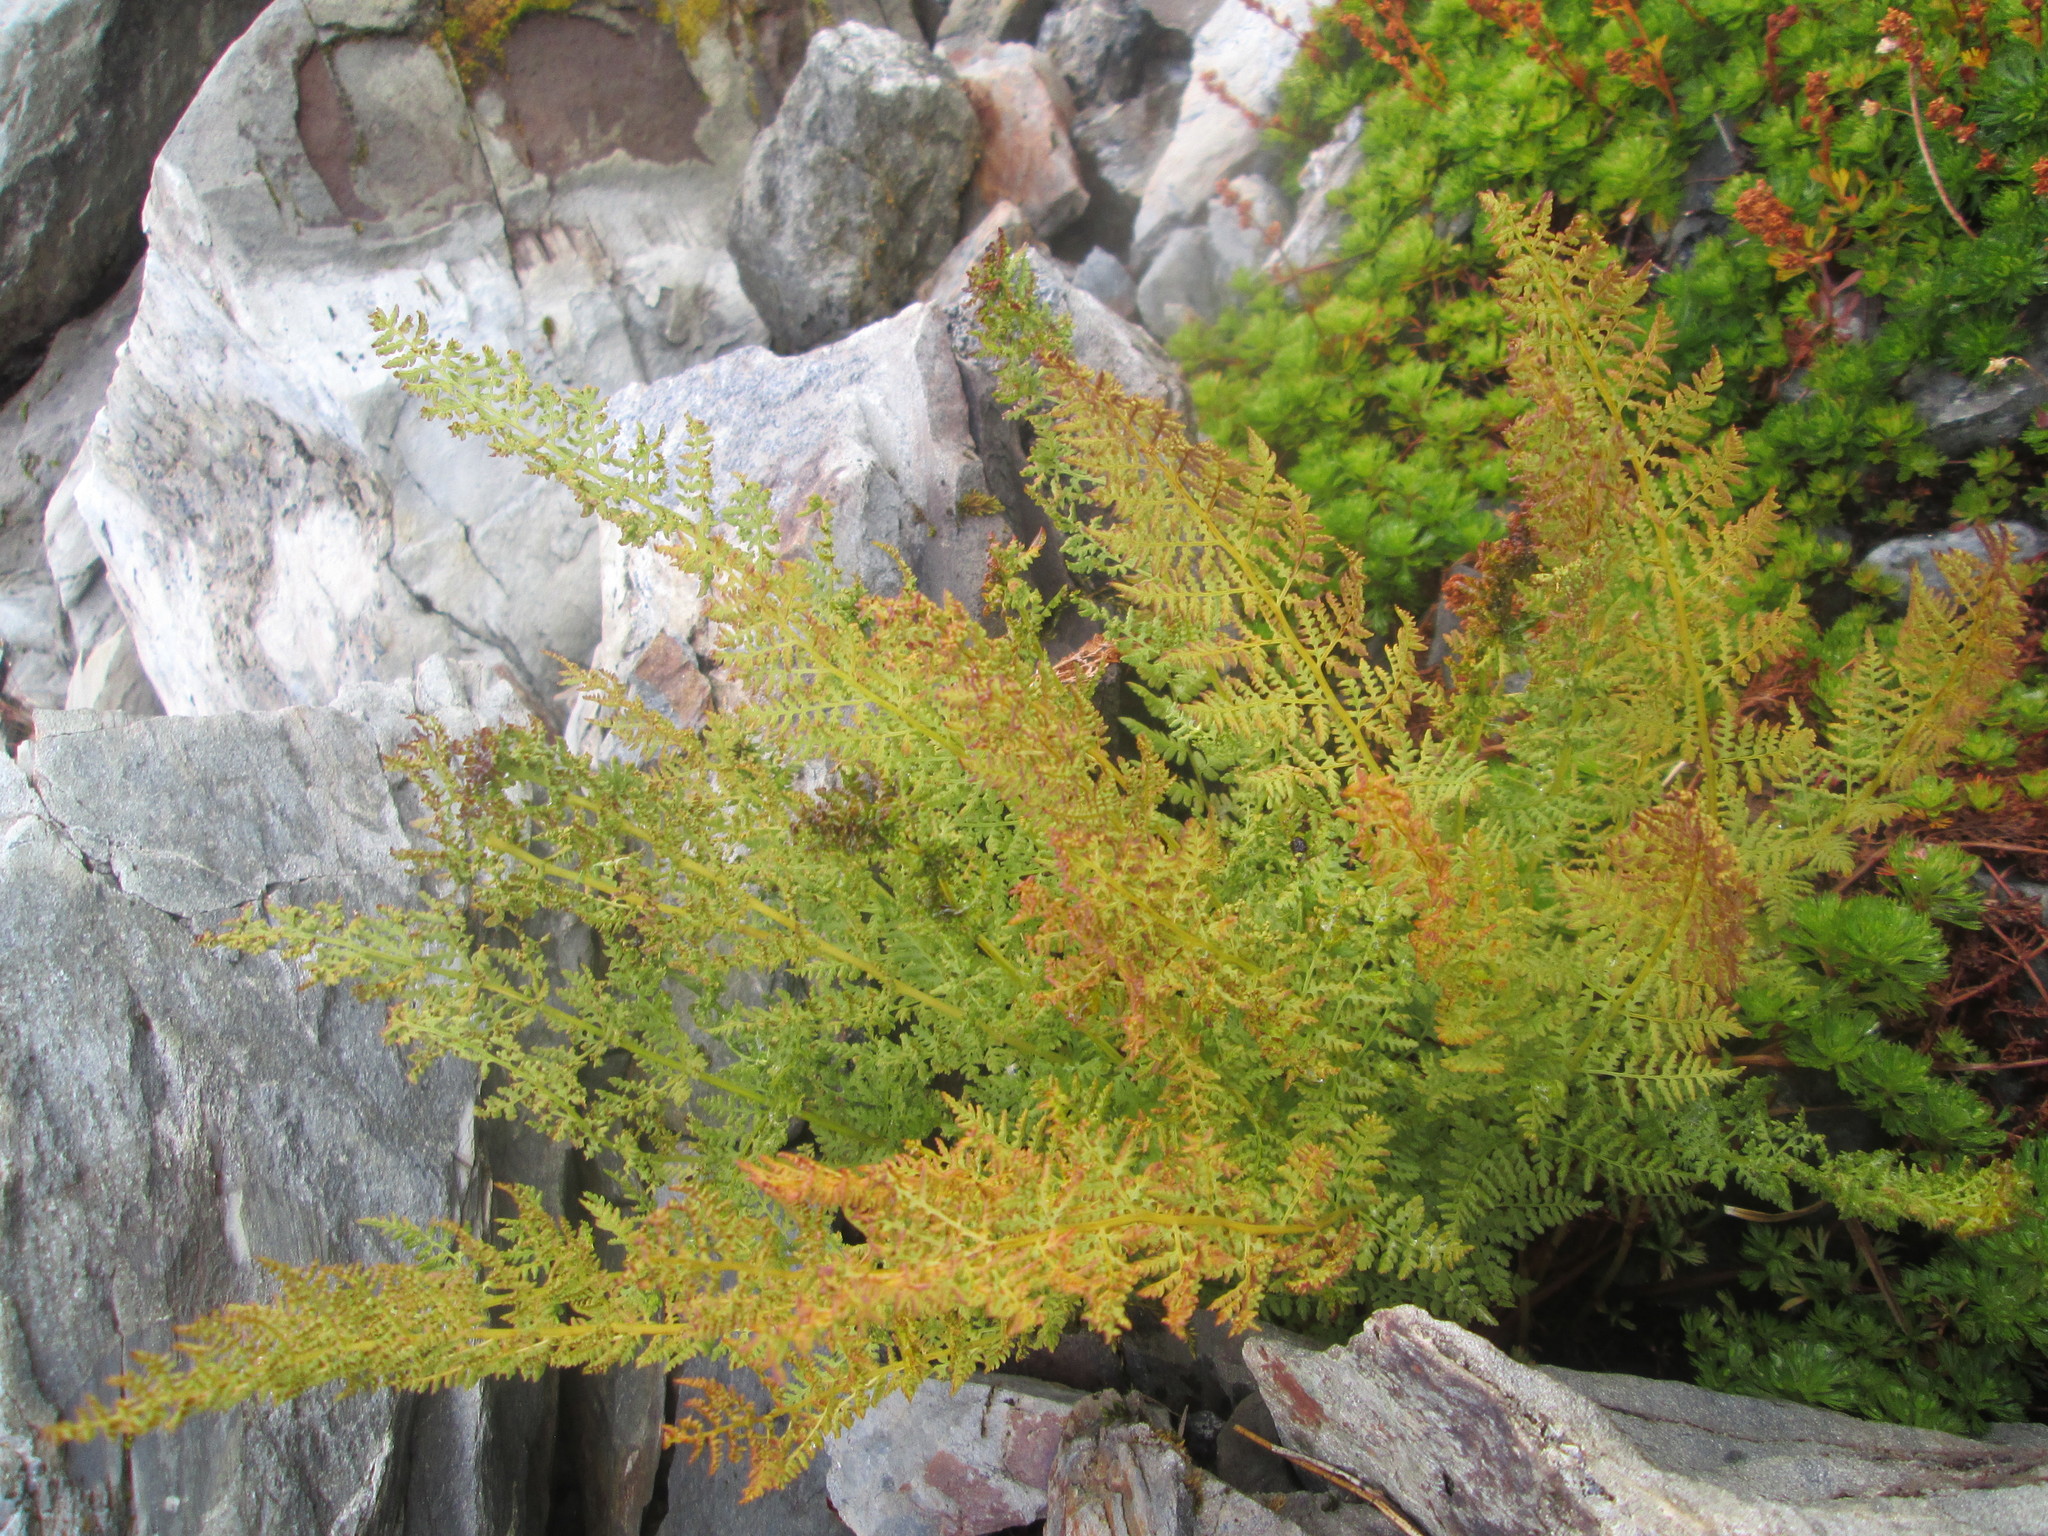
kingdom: Plantae
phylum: Tracheophyta
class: Polypodiopsida
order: Polypodiales
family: Athyriaceae
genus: Athyrium
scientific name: Athyrium americanum
